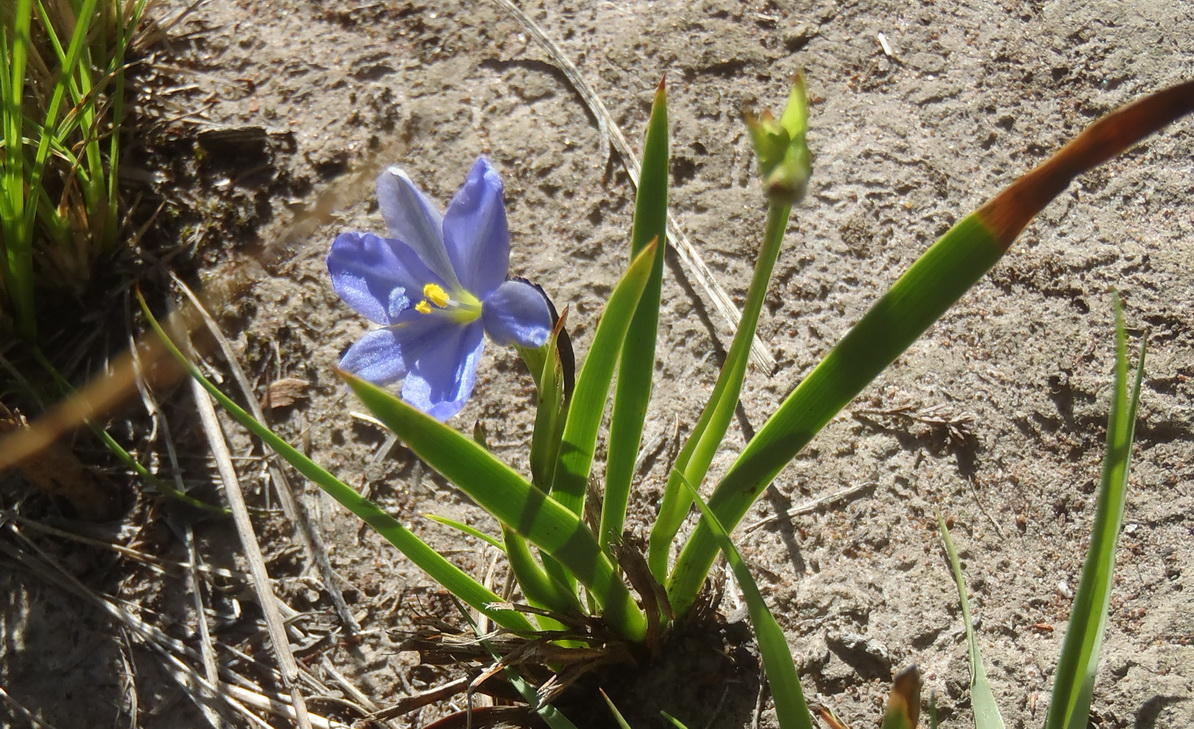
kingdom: Plantae
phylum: Tracheophyta
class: Liliopsida
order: Asparagales
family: Iridaceae
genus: Aristea
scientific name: Aristea pusilla
